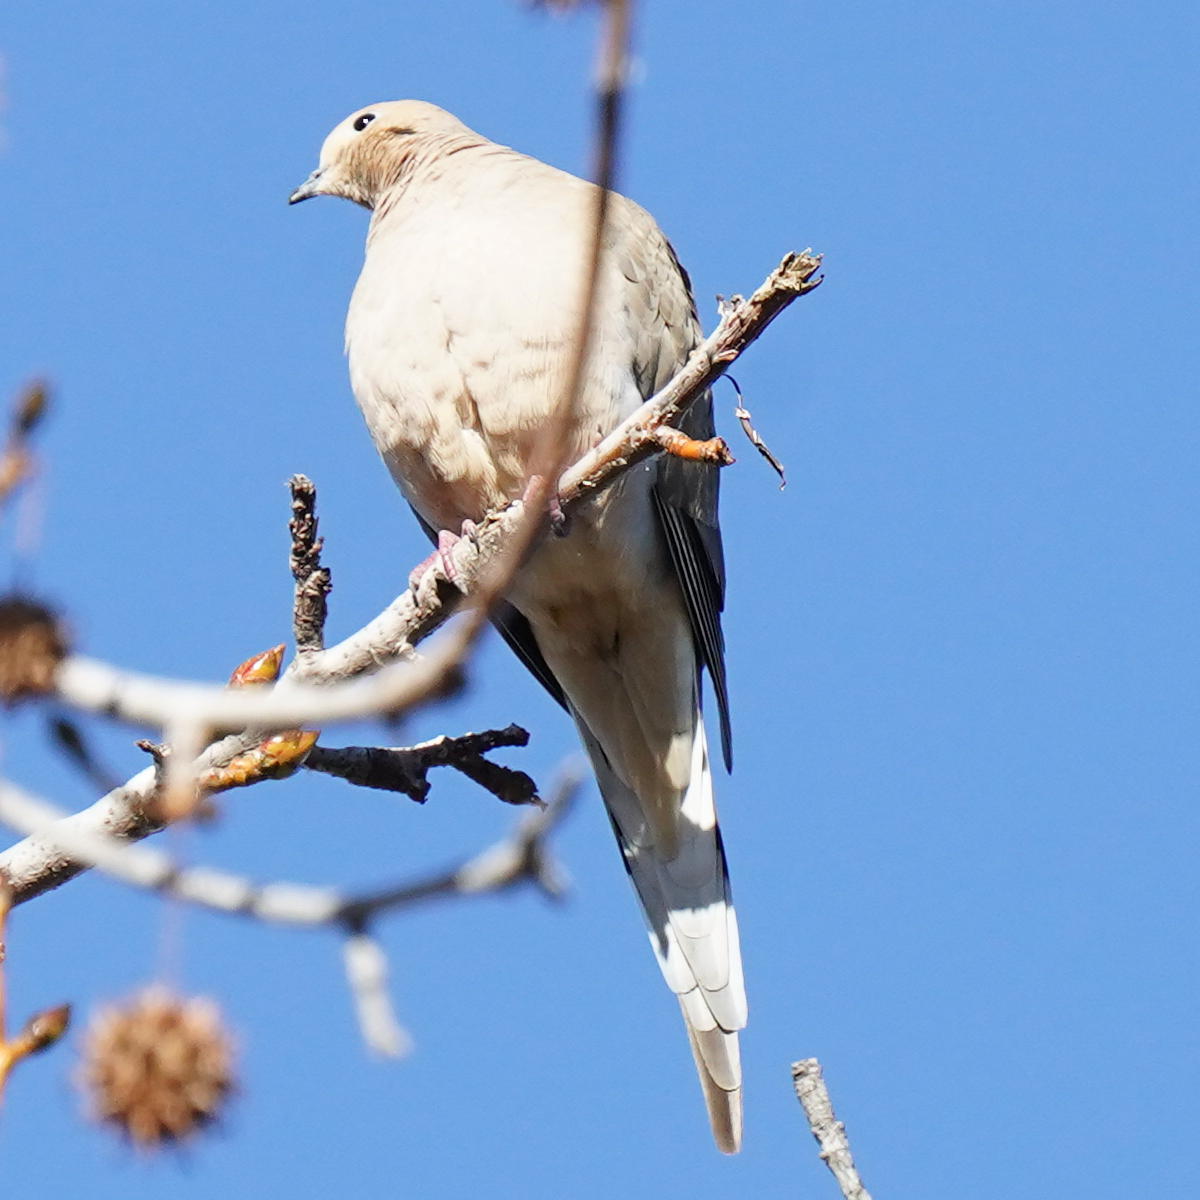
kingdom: Animalia
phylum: Chordata
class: Aves
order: Columbiformes
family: Columbidae
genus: Zenaida
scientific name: Zenaida macroura
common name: Mourning dove
